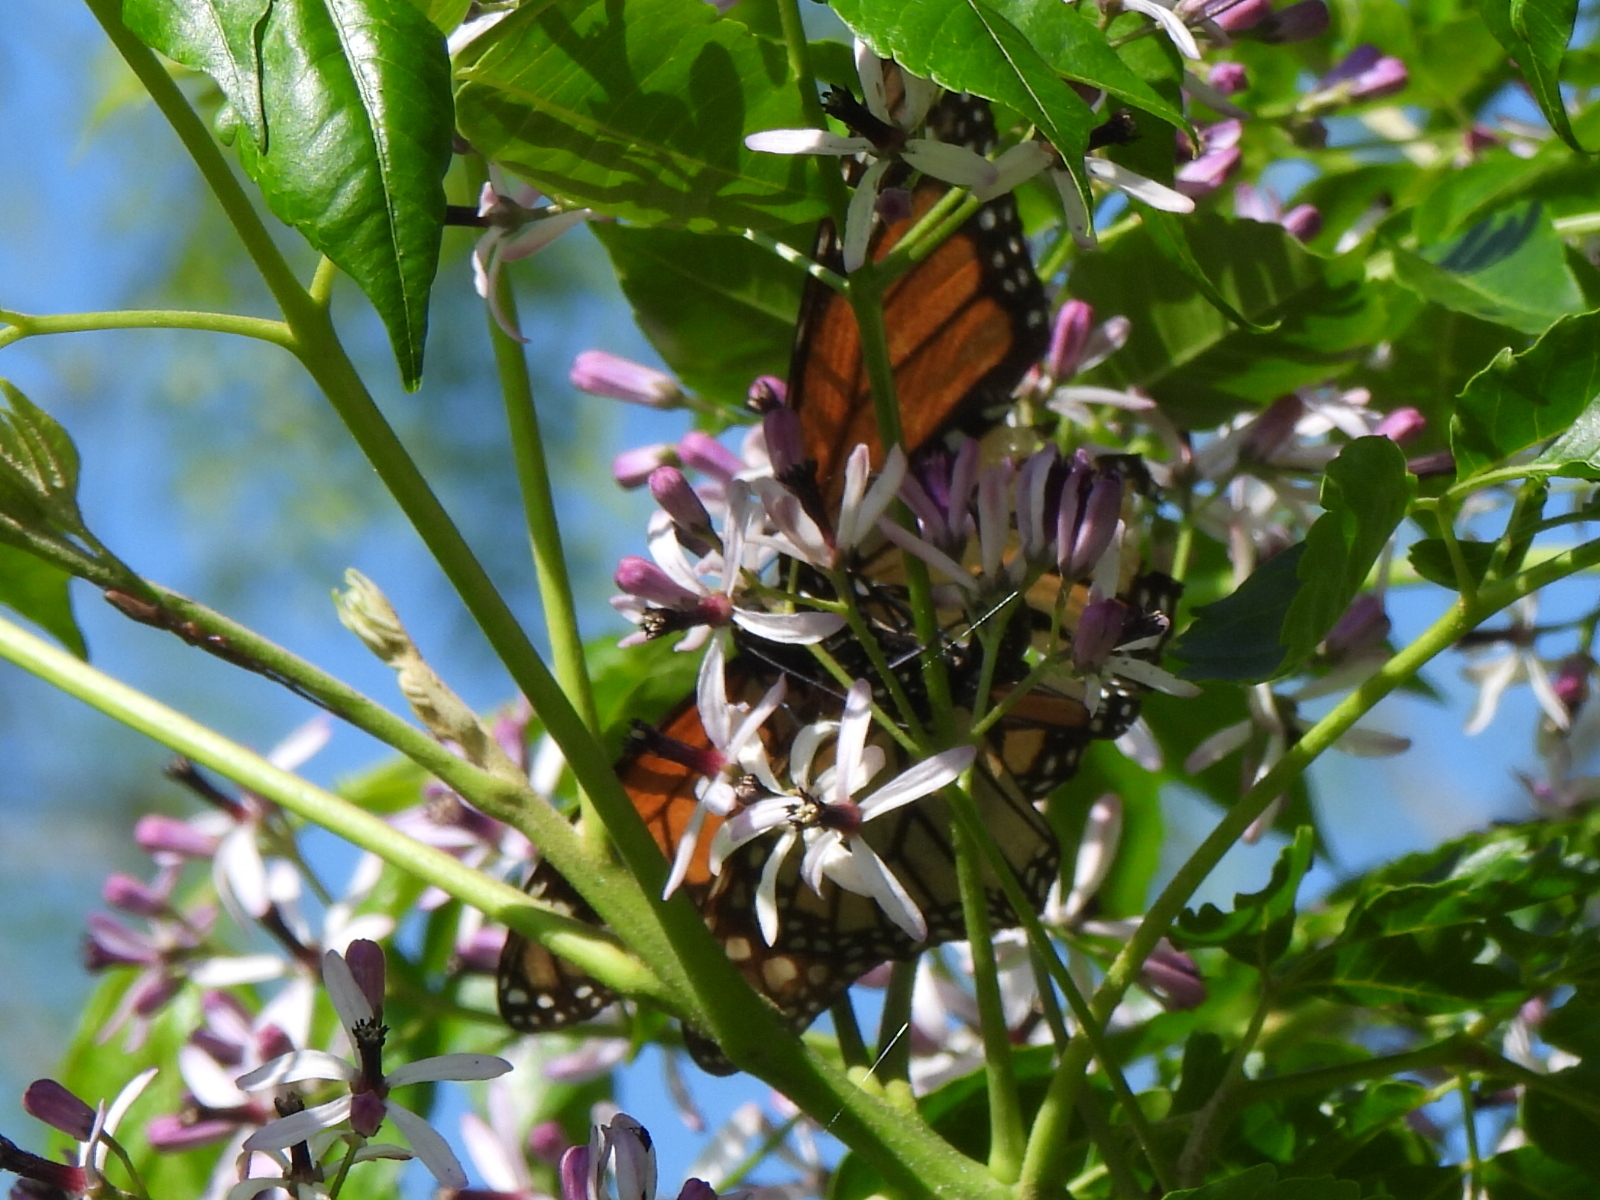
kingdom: Animalia
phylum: Arthropoda
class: Insecta
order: Lepidoptera
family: Nymphalidae
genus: Danaus
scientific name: Danaus plexippus
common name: Monarch
